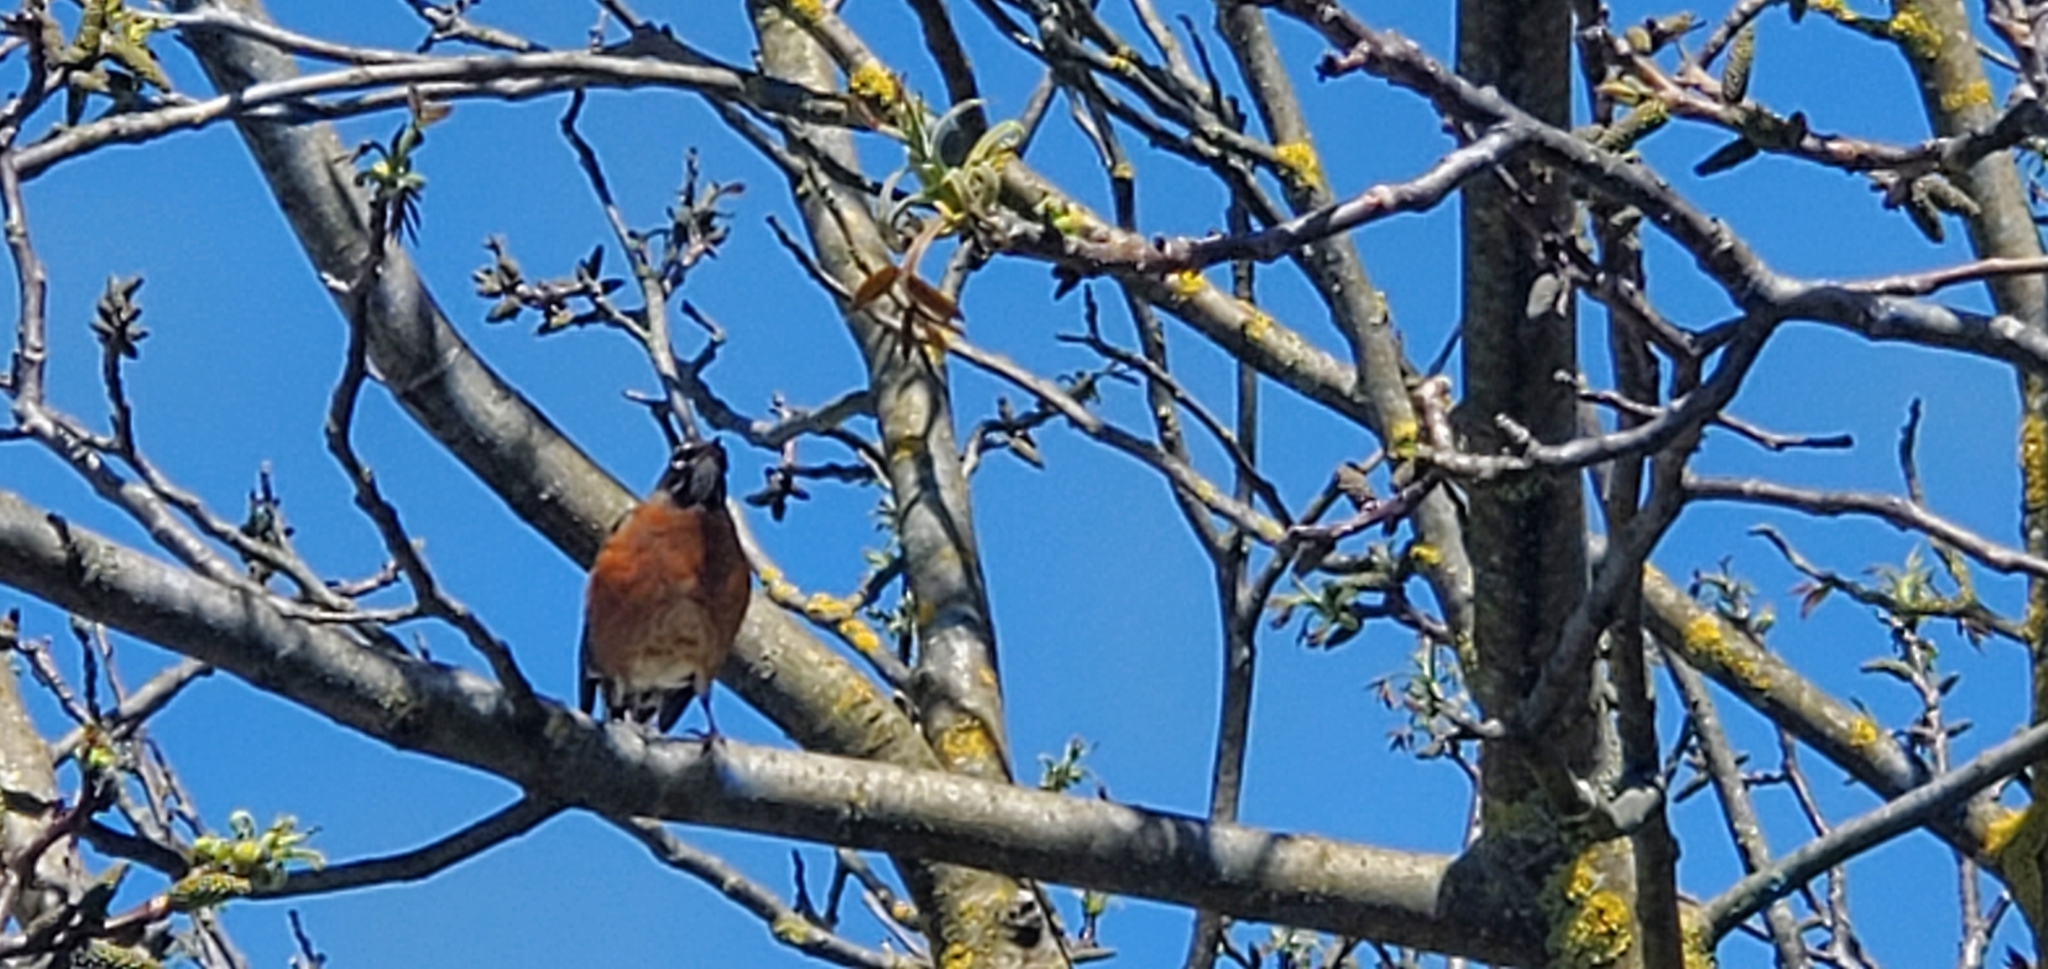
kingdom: Animalia
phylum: Chordata
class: Aves
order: Passeriformes
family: Turdidae
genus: Turdus
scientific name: Turdus migratorius
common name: American robin
